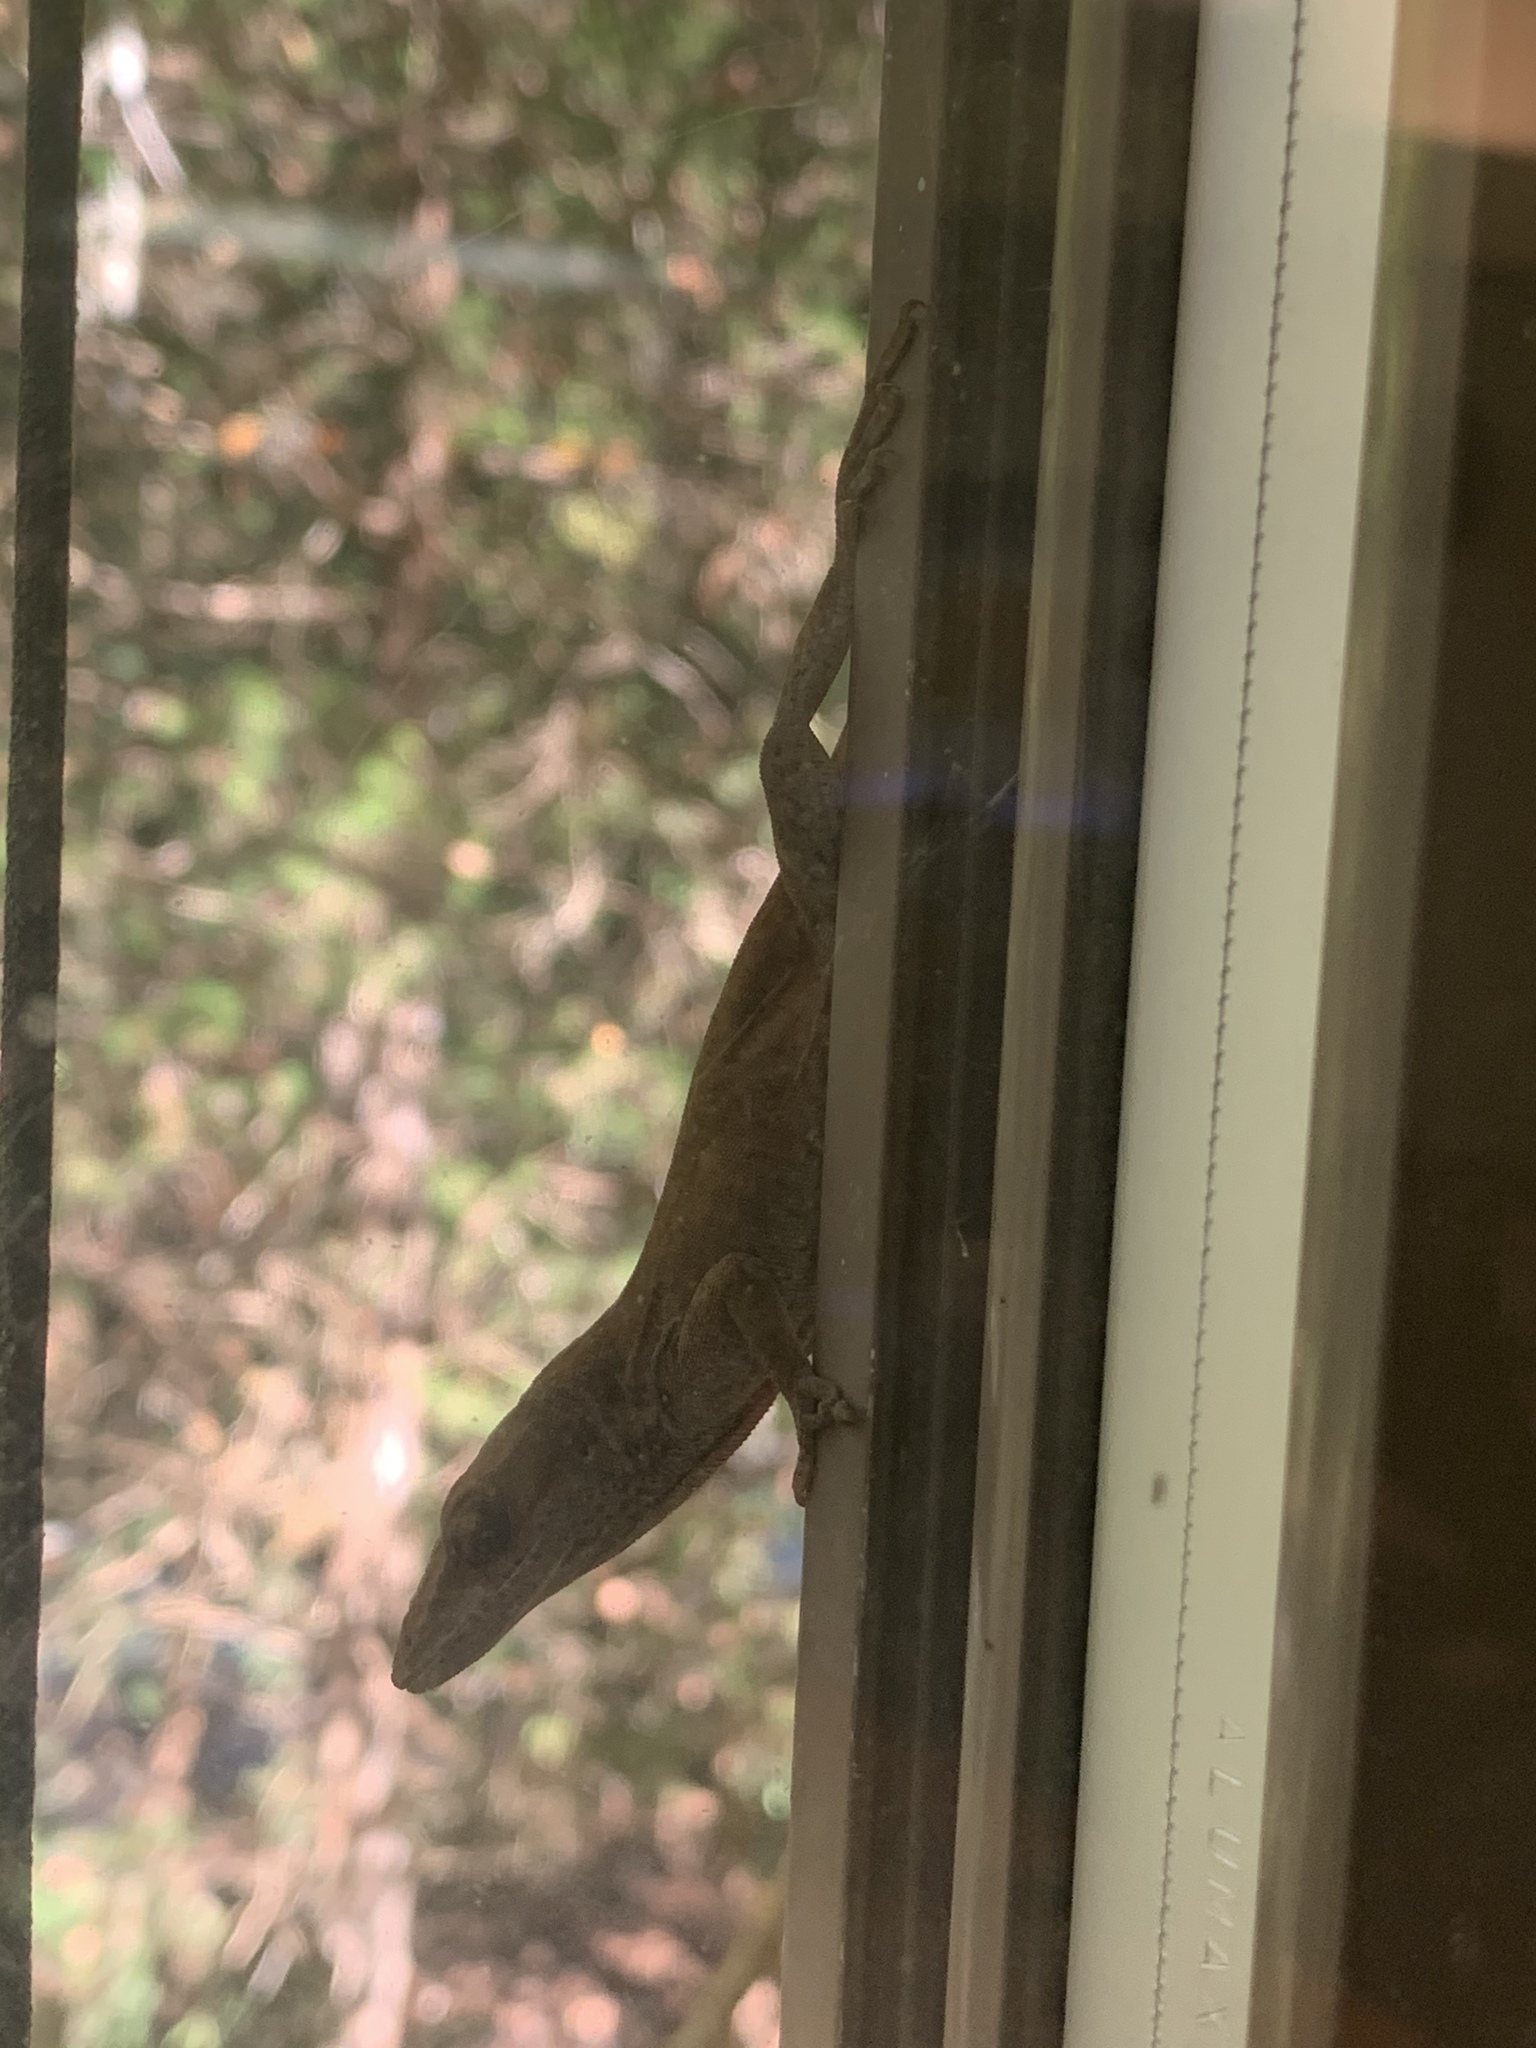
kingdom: Animalia
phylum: Chordata
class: Squamata
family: Dactyloidae
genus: Anolis
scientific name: Anolis carolinensis
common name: Green anole
